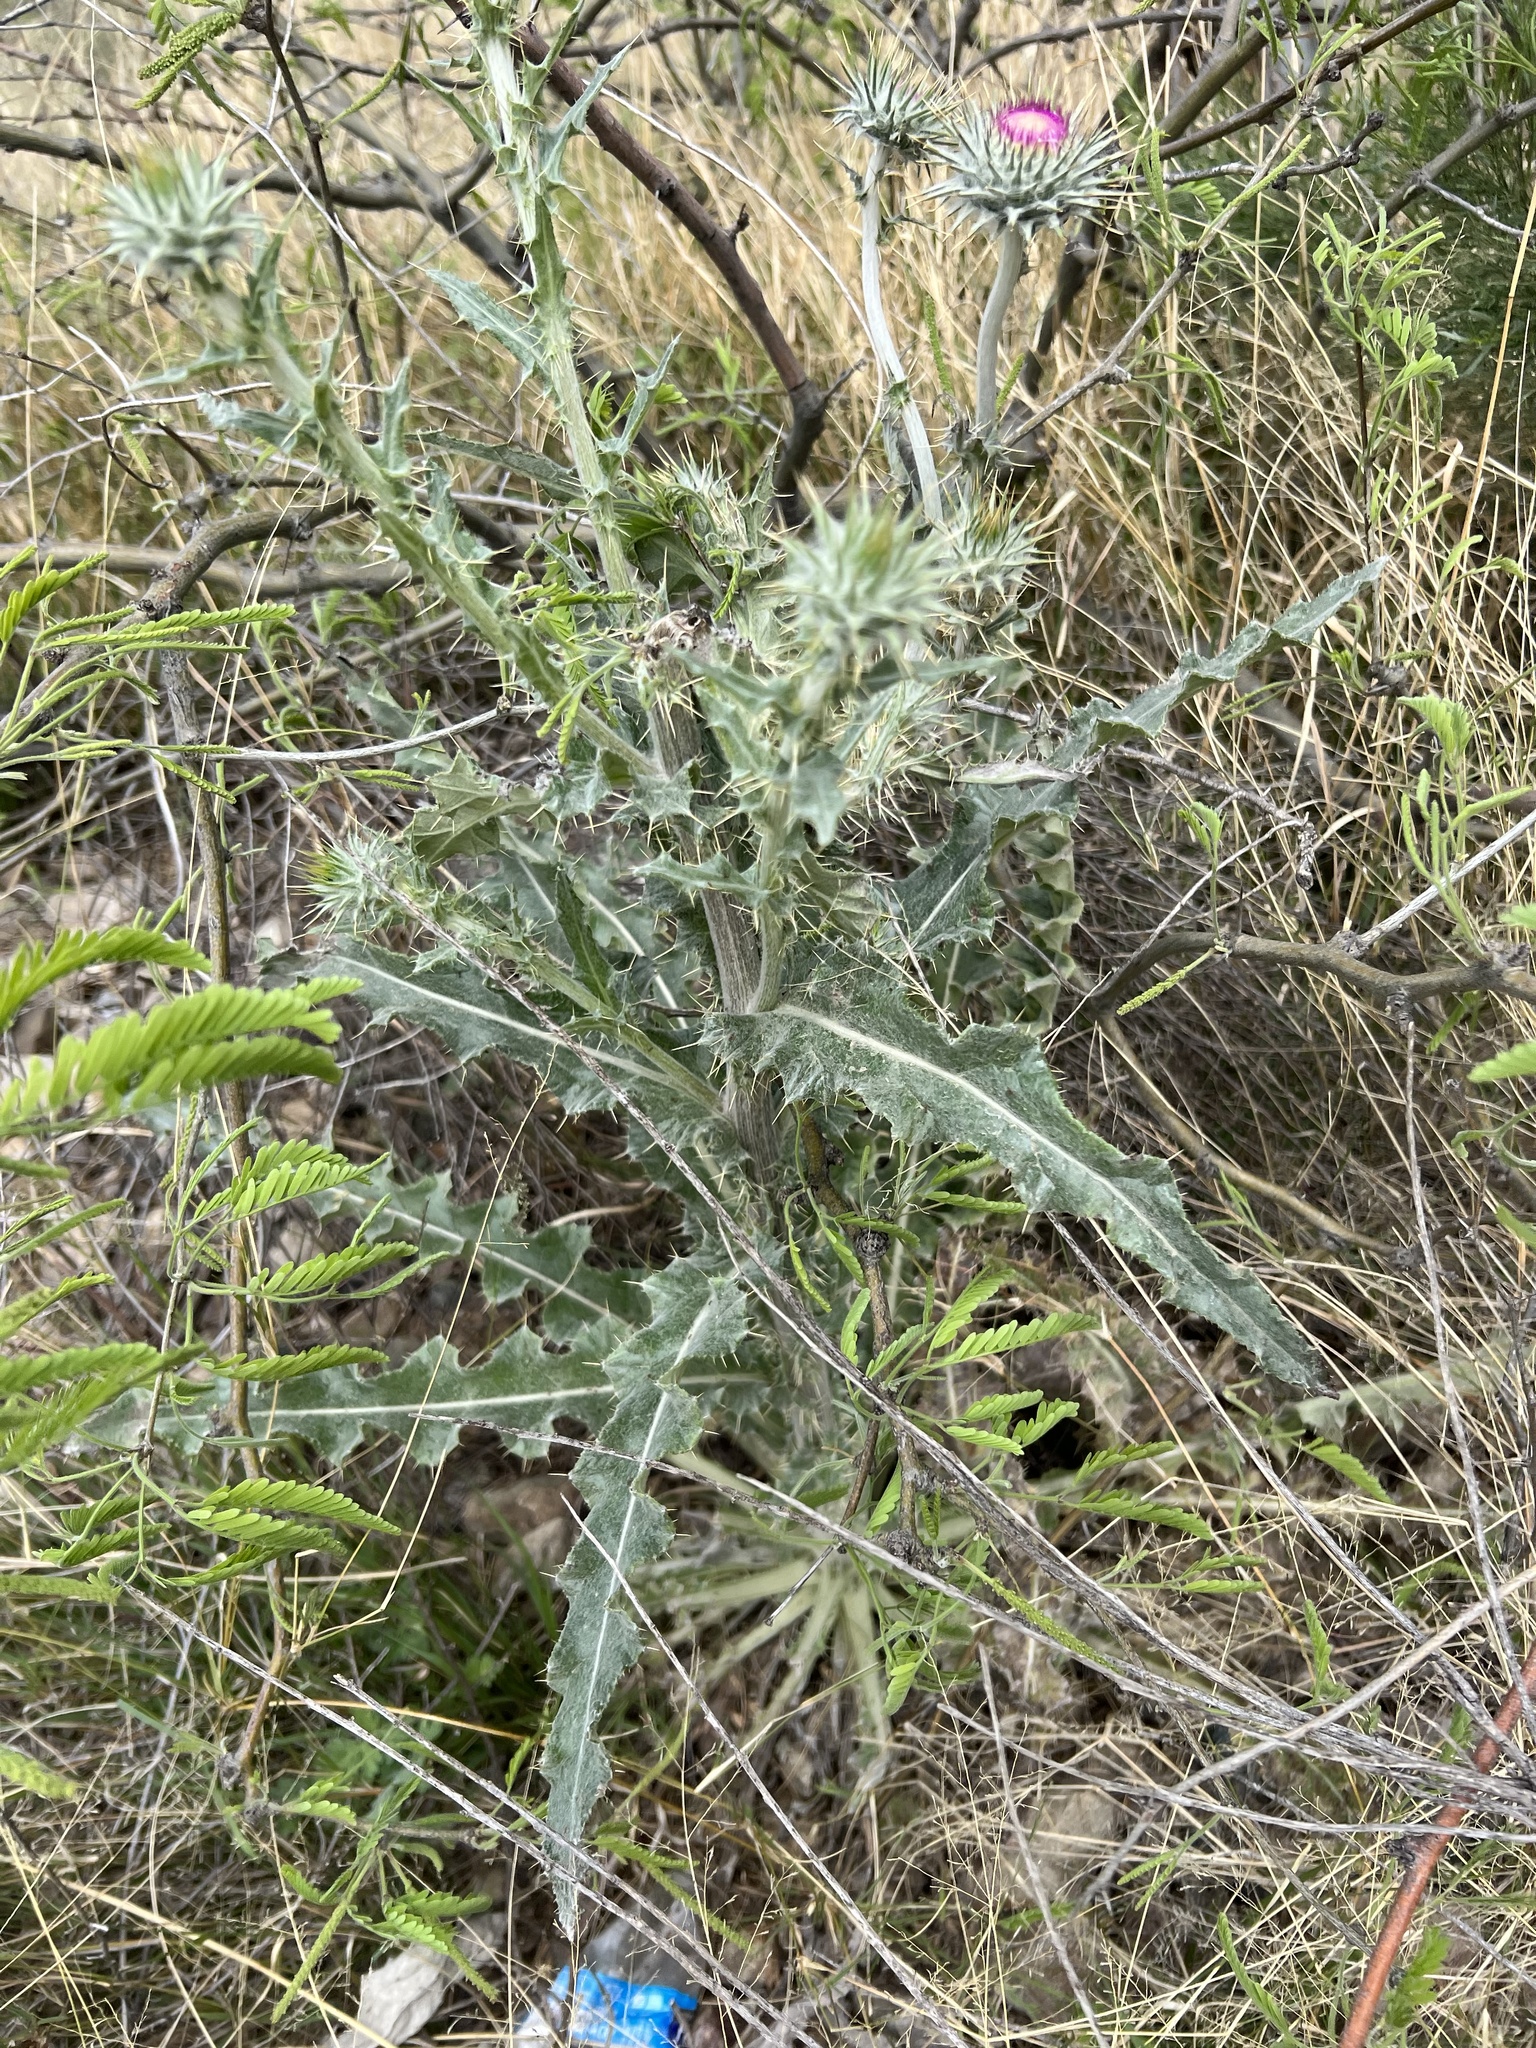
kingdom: Plantae
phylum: Tracheophyta
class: Magnoliopsida
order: Asterales
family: Asteraceae
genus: Cirsium
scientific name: Cirsium neomexicanum
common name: New mexico thistle
